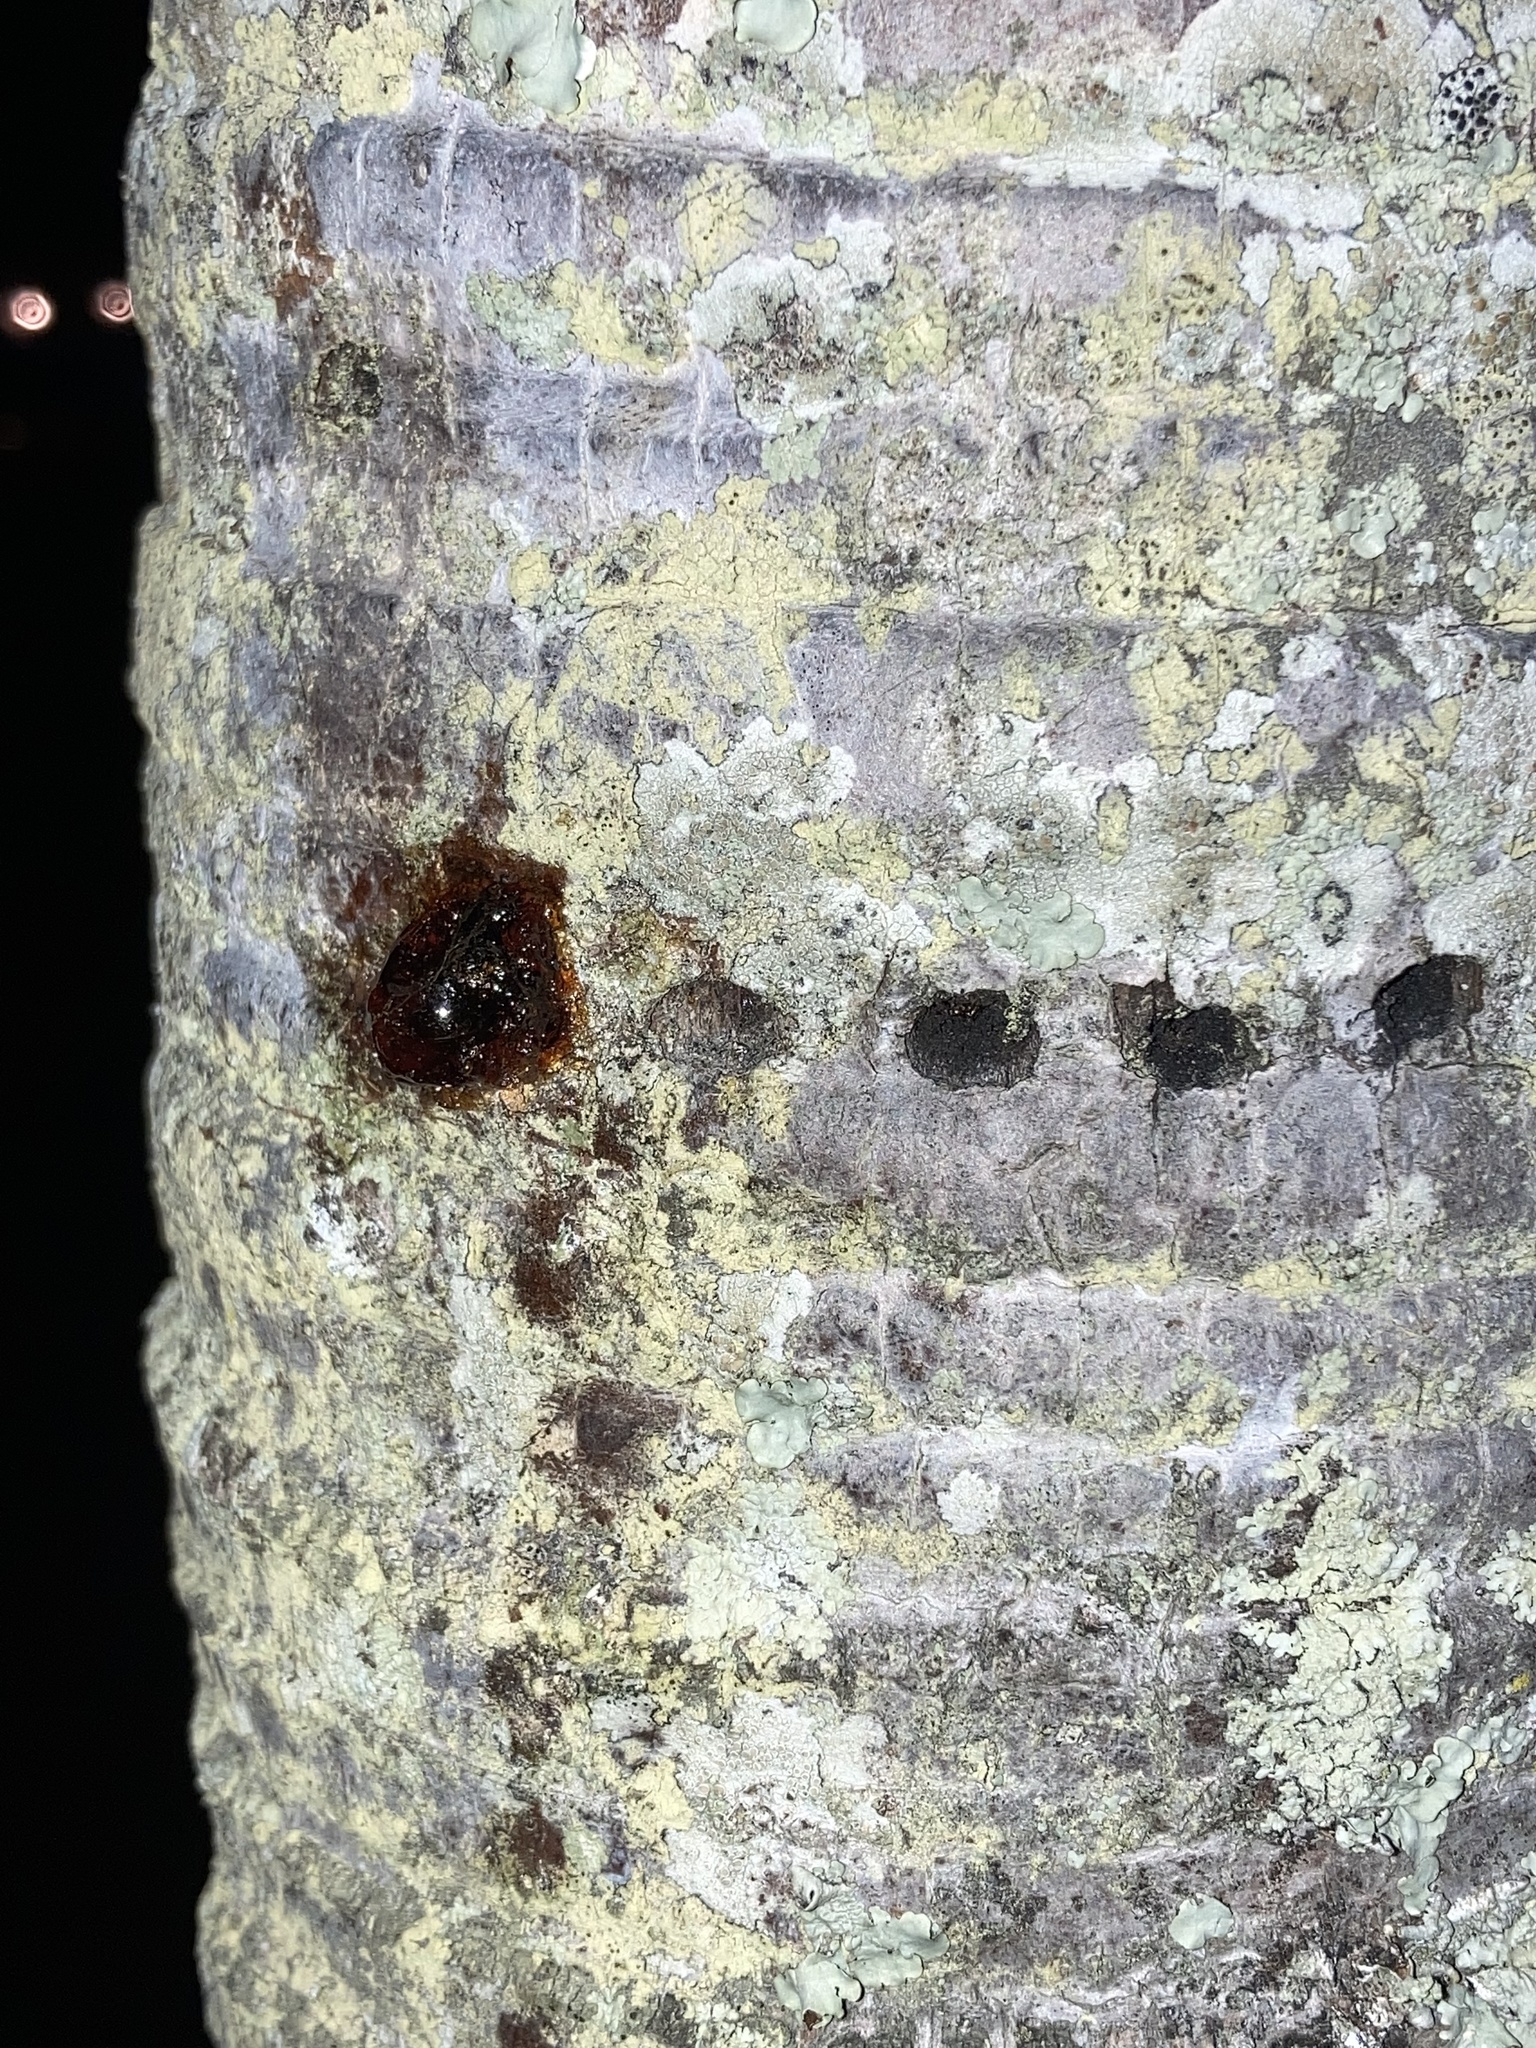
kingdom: Animalia
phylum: Chordata
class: Aves
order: Piciformes
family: Picidae
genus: Sphyrapicus
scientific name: Sphyrapicus varius
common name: Yellow-bellied sapsucker
